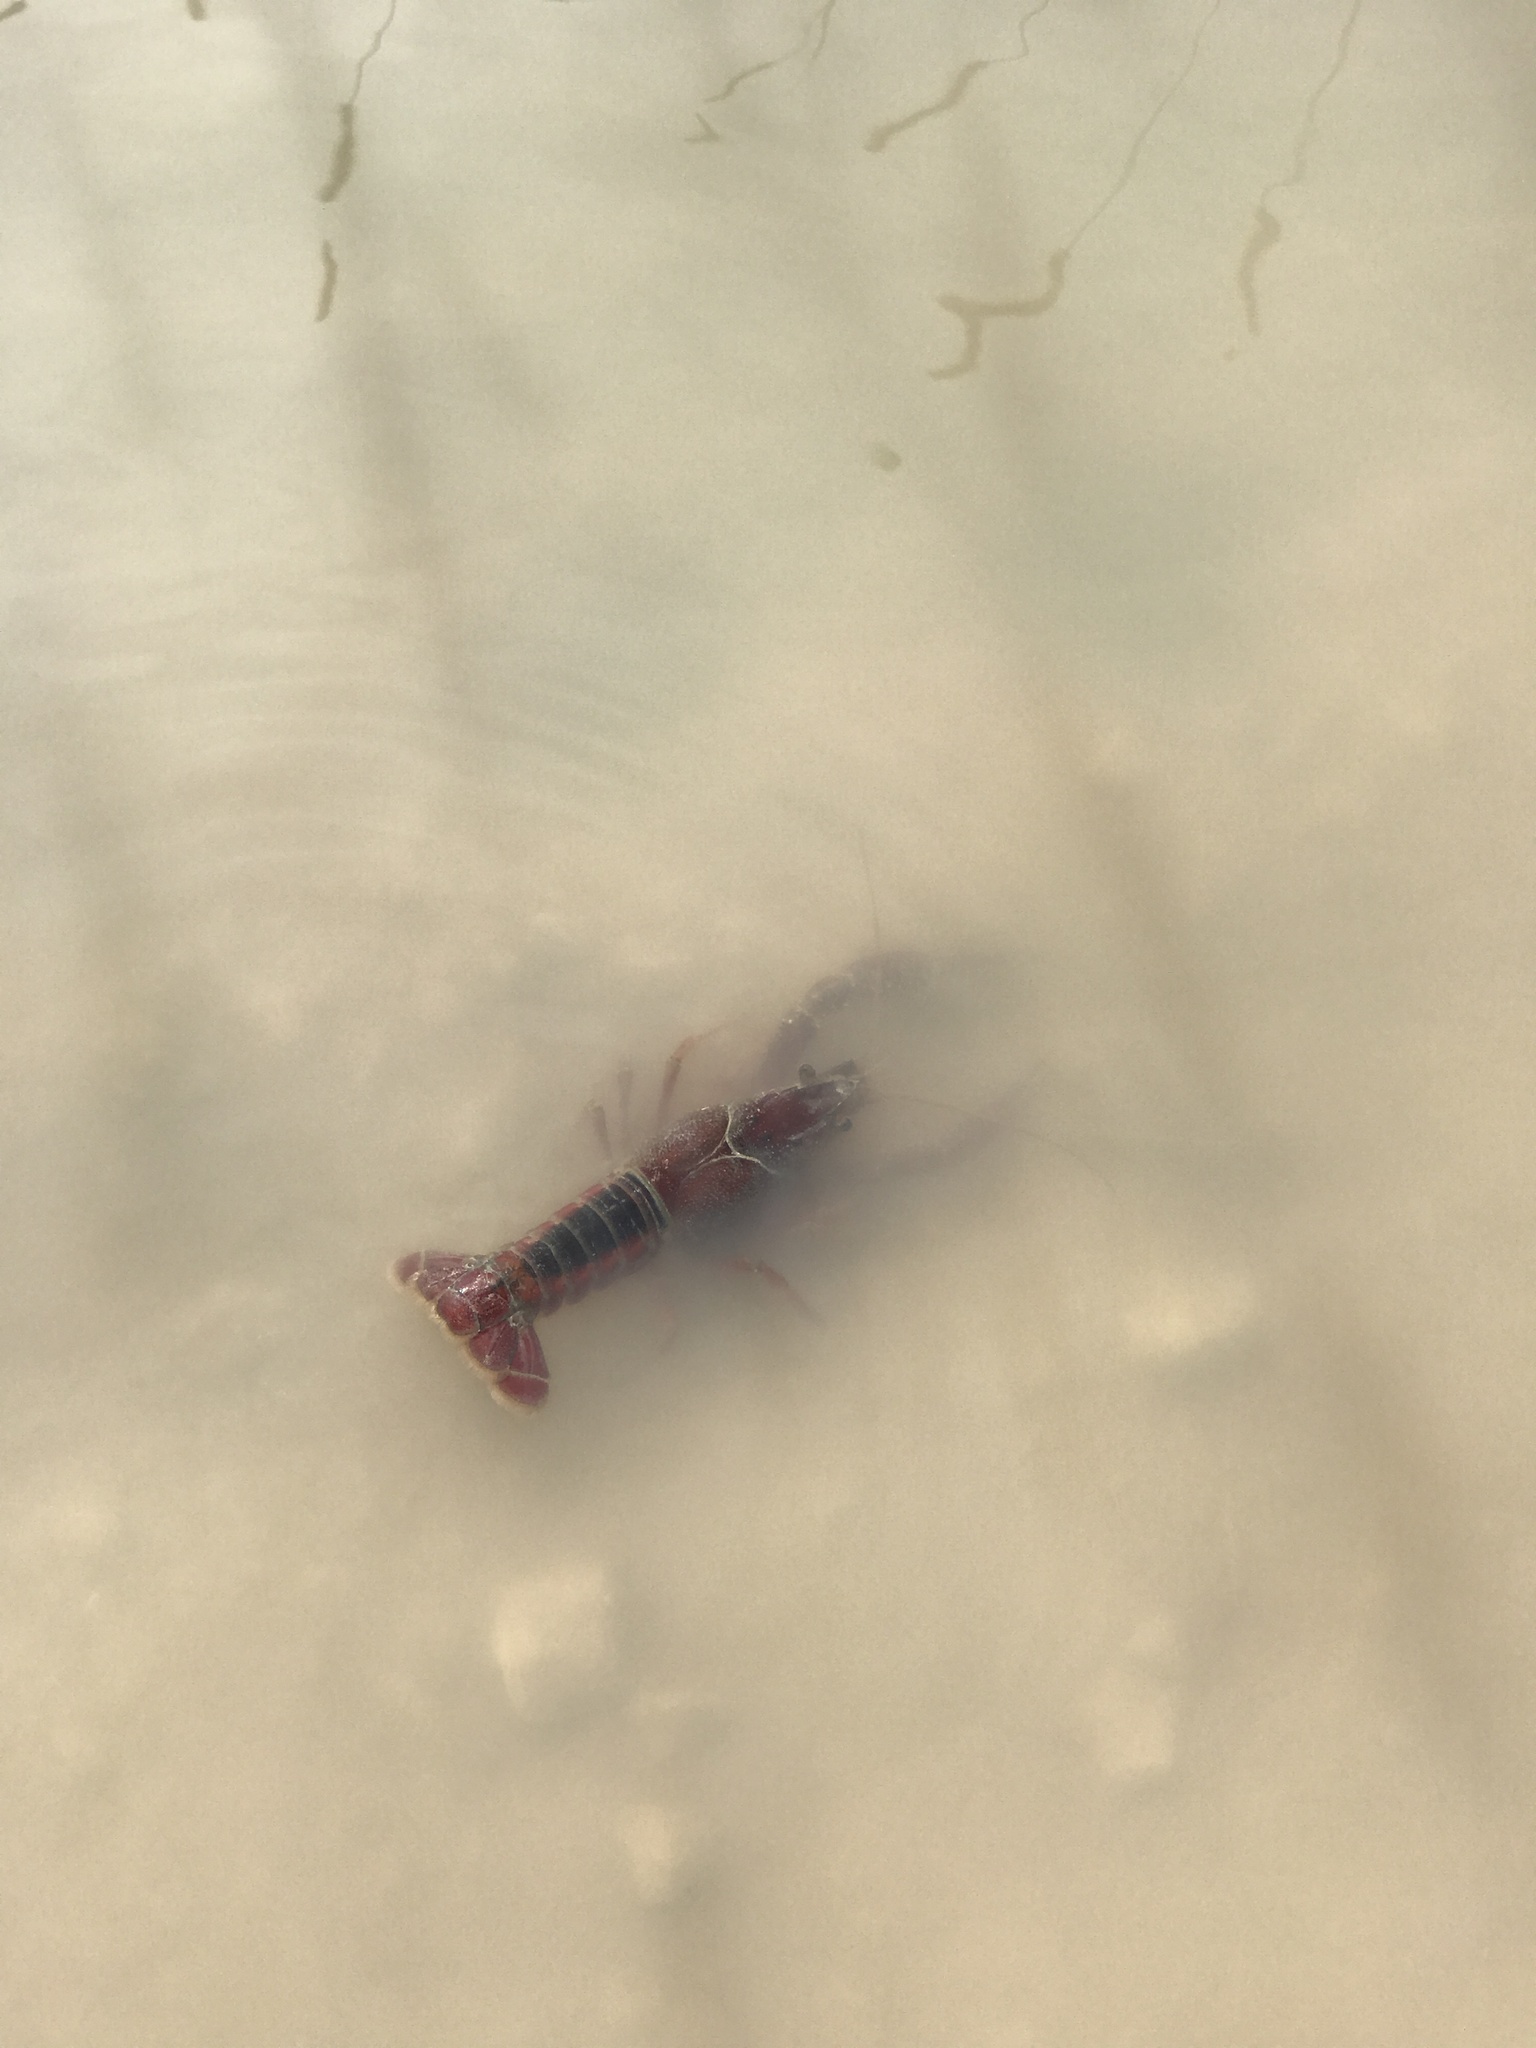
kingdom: Animalia
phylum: Arthropoda
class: Malacostraca
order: Decapoda
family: Cambaridae
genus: Procambarus
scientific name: Procambarus acutus
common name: White river crayfish
